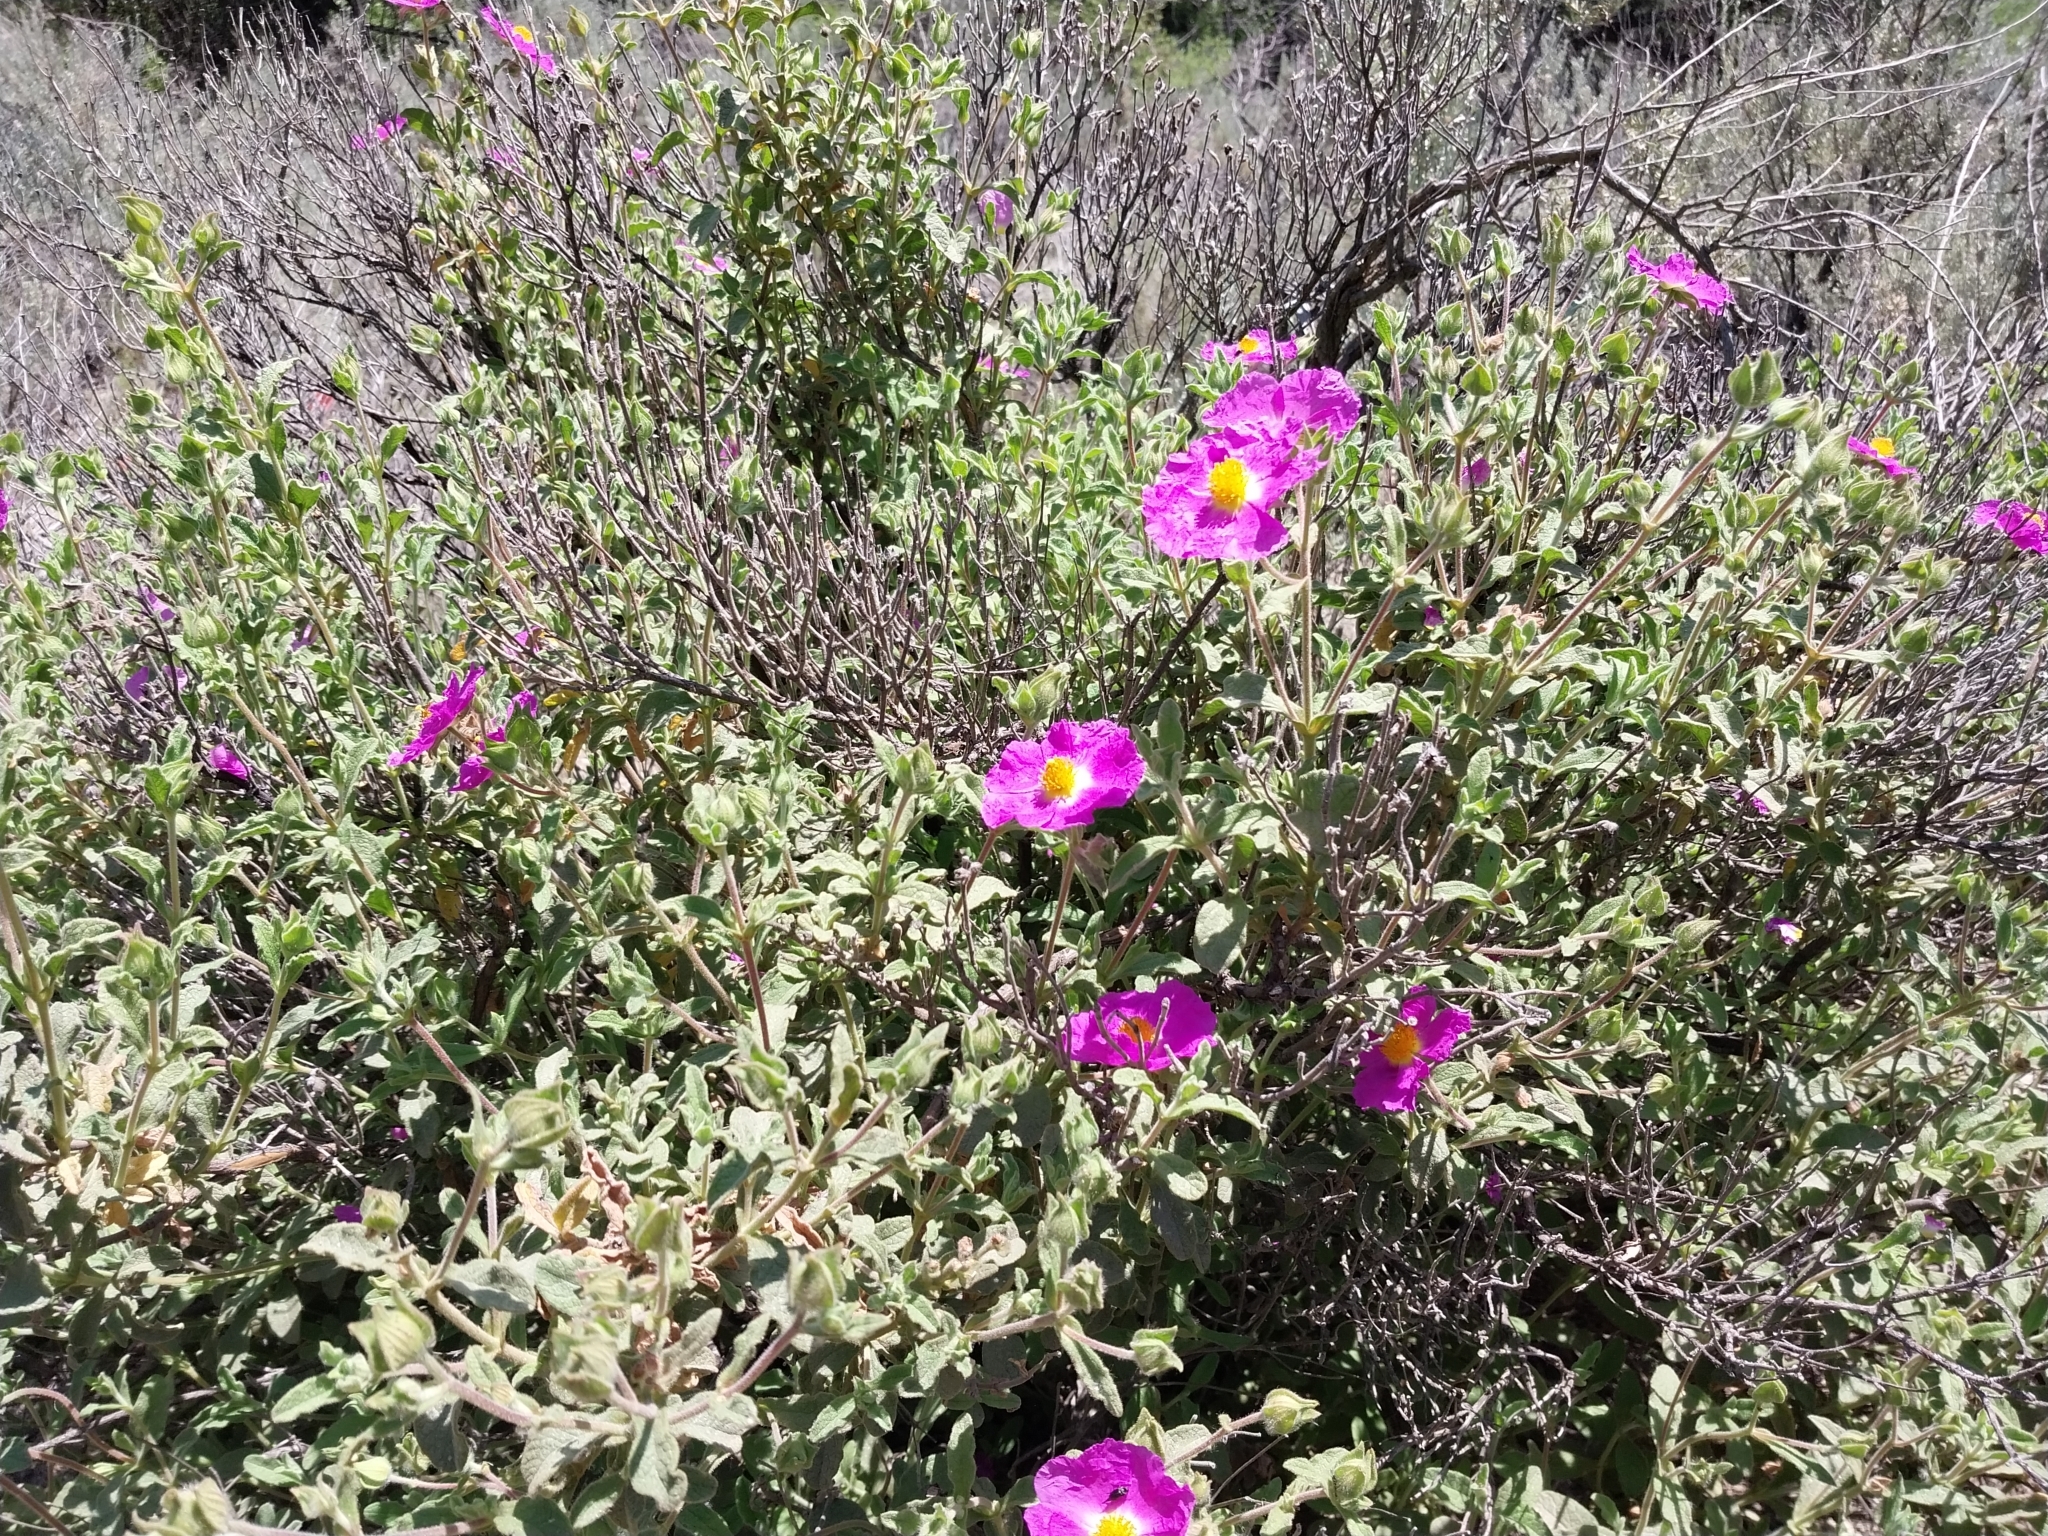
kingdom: Plantae
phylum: Tracheophyta
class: Magnoliopsida
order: Malvales
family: Cistaceae
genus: Cistus
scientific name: Cistus creticus
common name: Cretan rockrose
